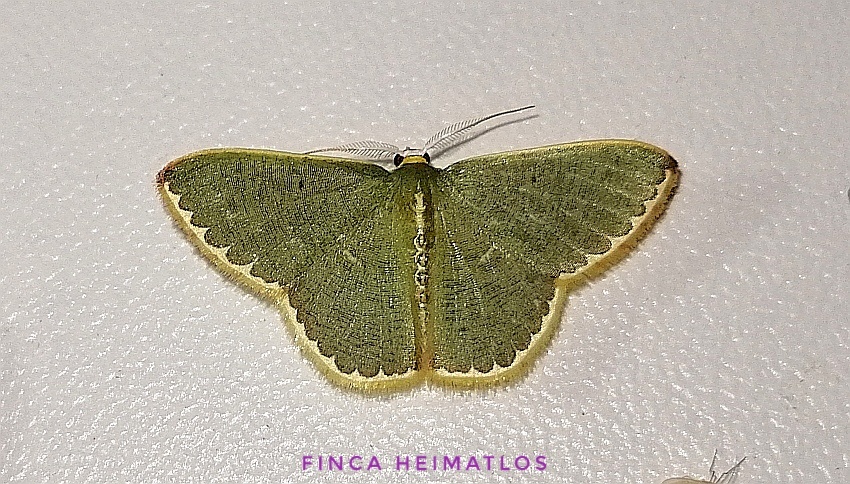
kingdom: Animalia
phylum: Arthropoda
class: Insecta
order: Lepidoptera
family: Geometridae
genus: Oospila
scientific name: Oospila decorata
